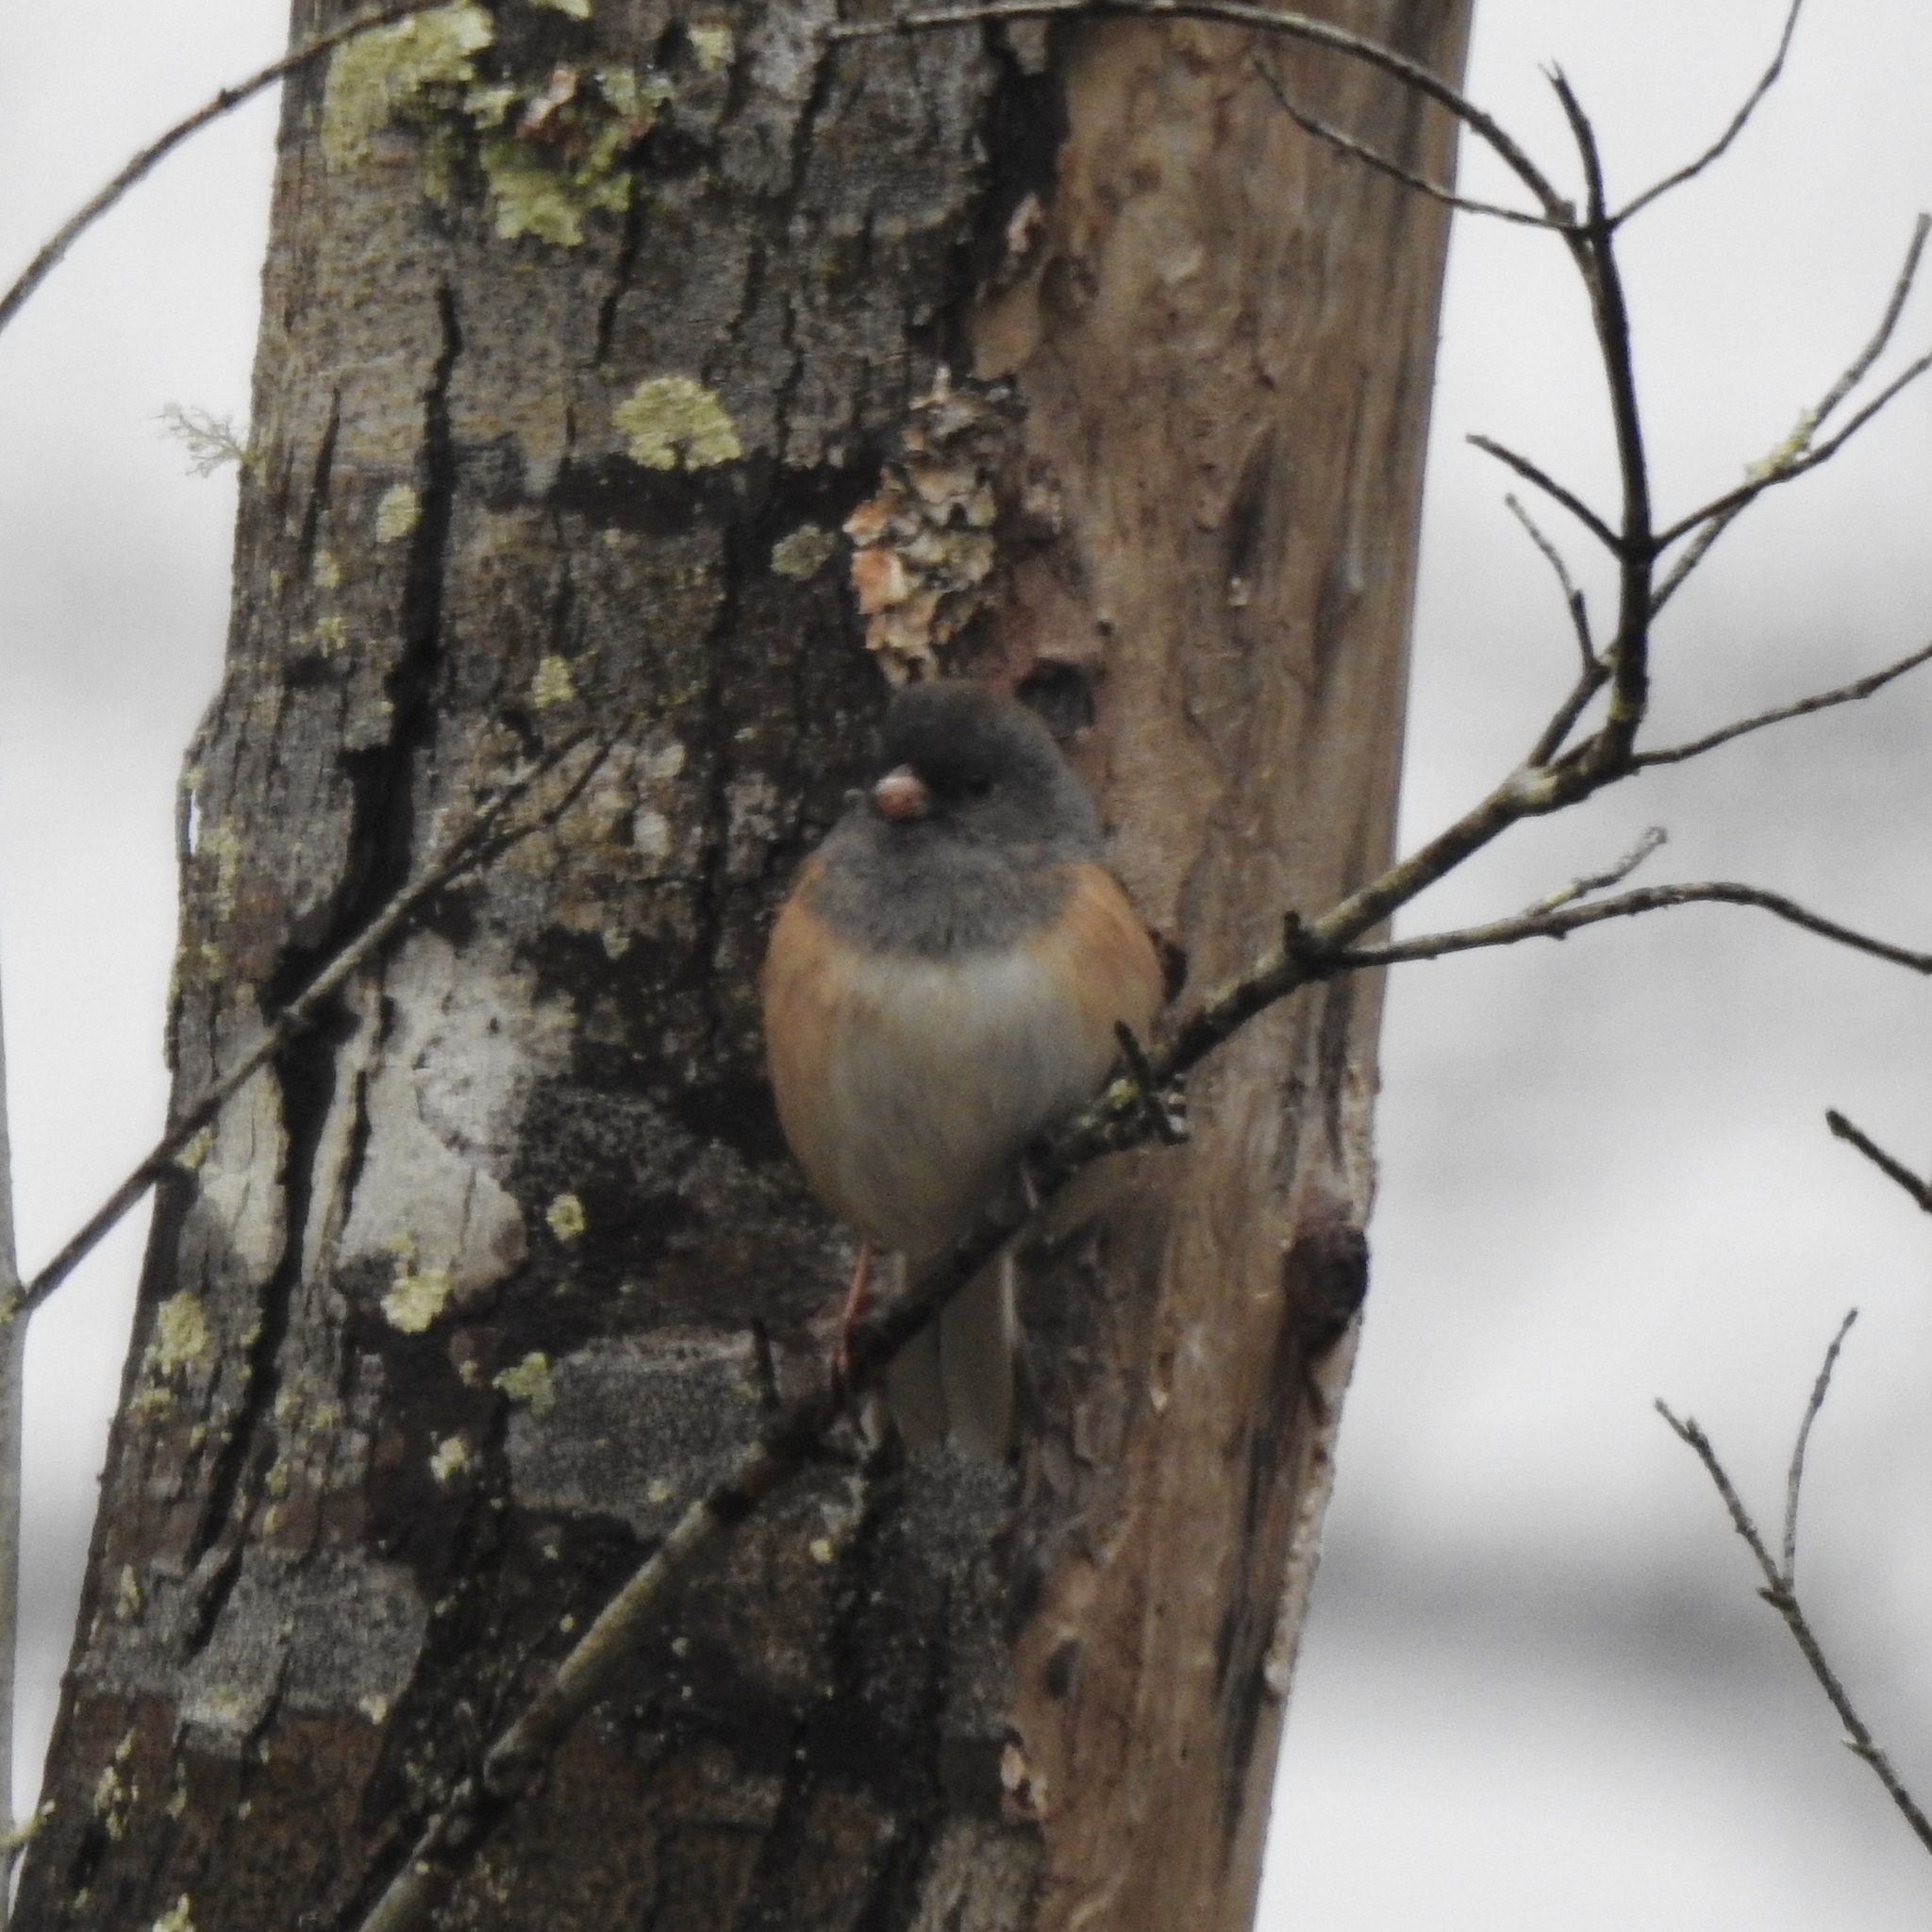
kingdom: Animalia
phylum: Chordata
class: Aves
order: Passeriformes
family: Passerellidae
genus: Junco
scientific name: Junco hyemalis
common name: Dark-eyed junco
